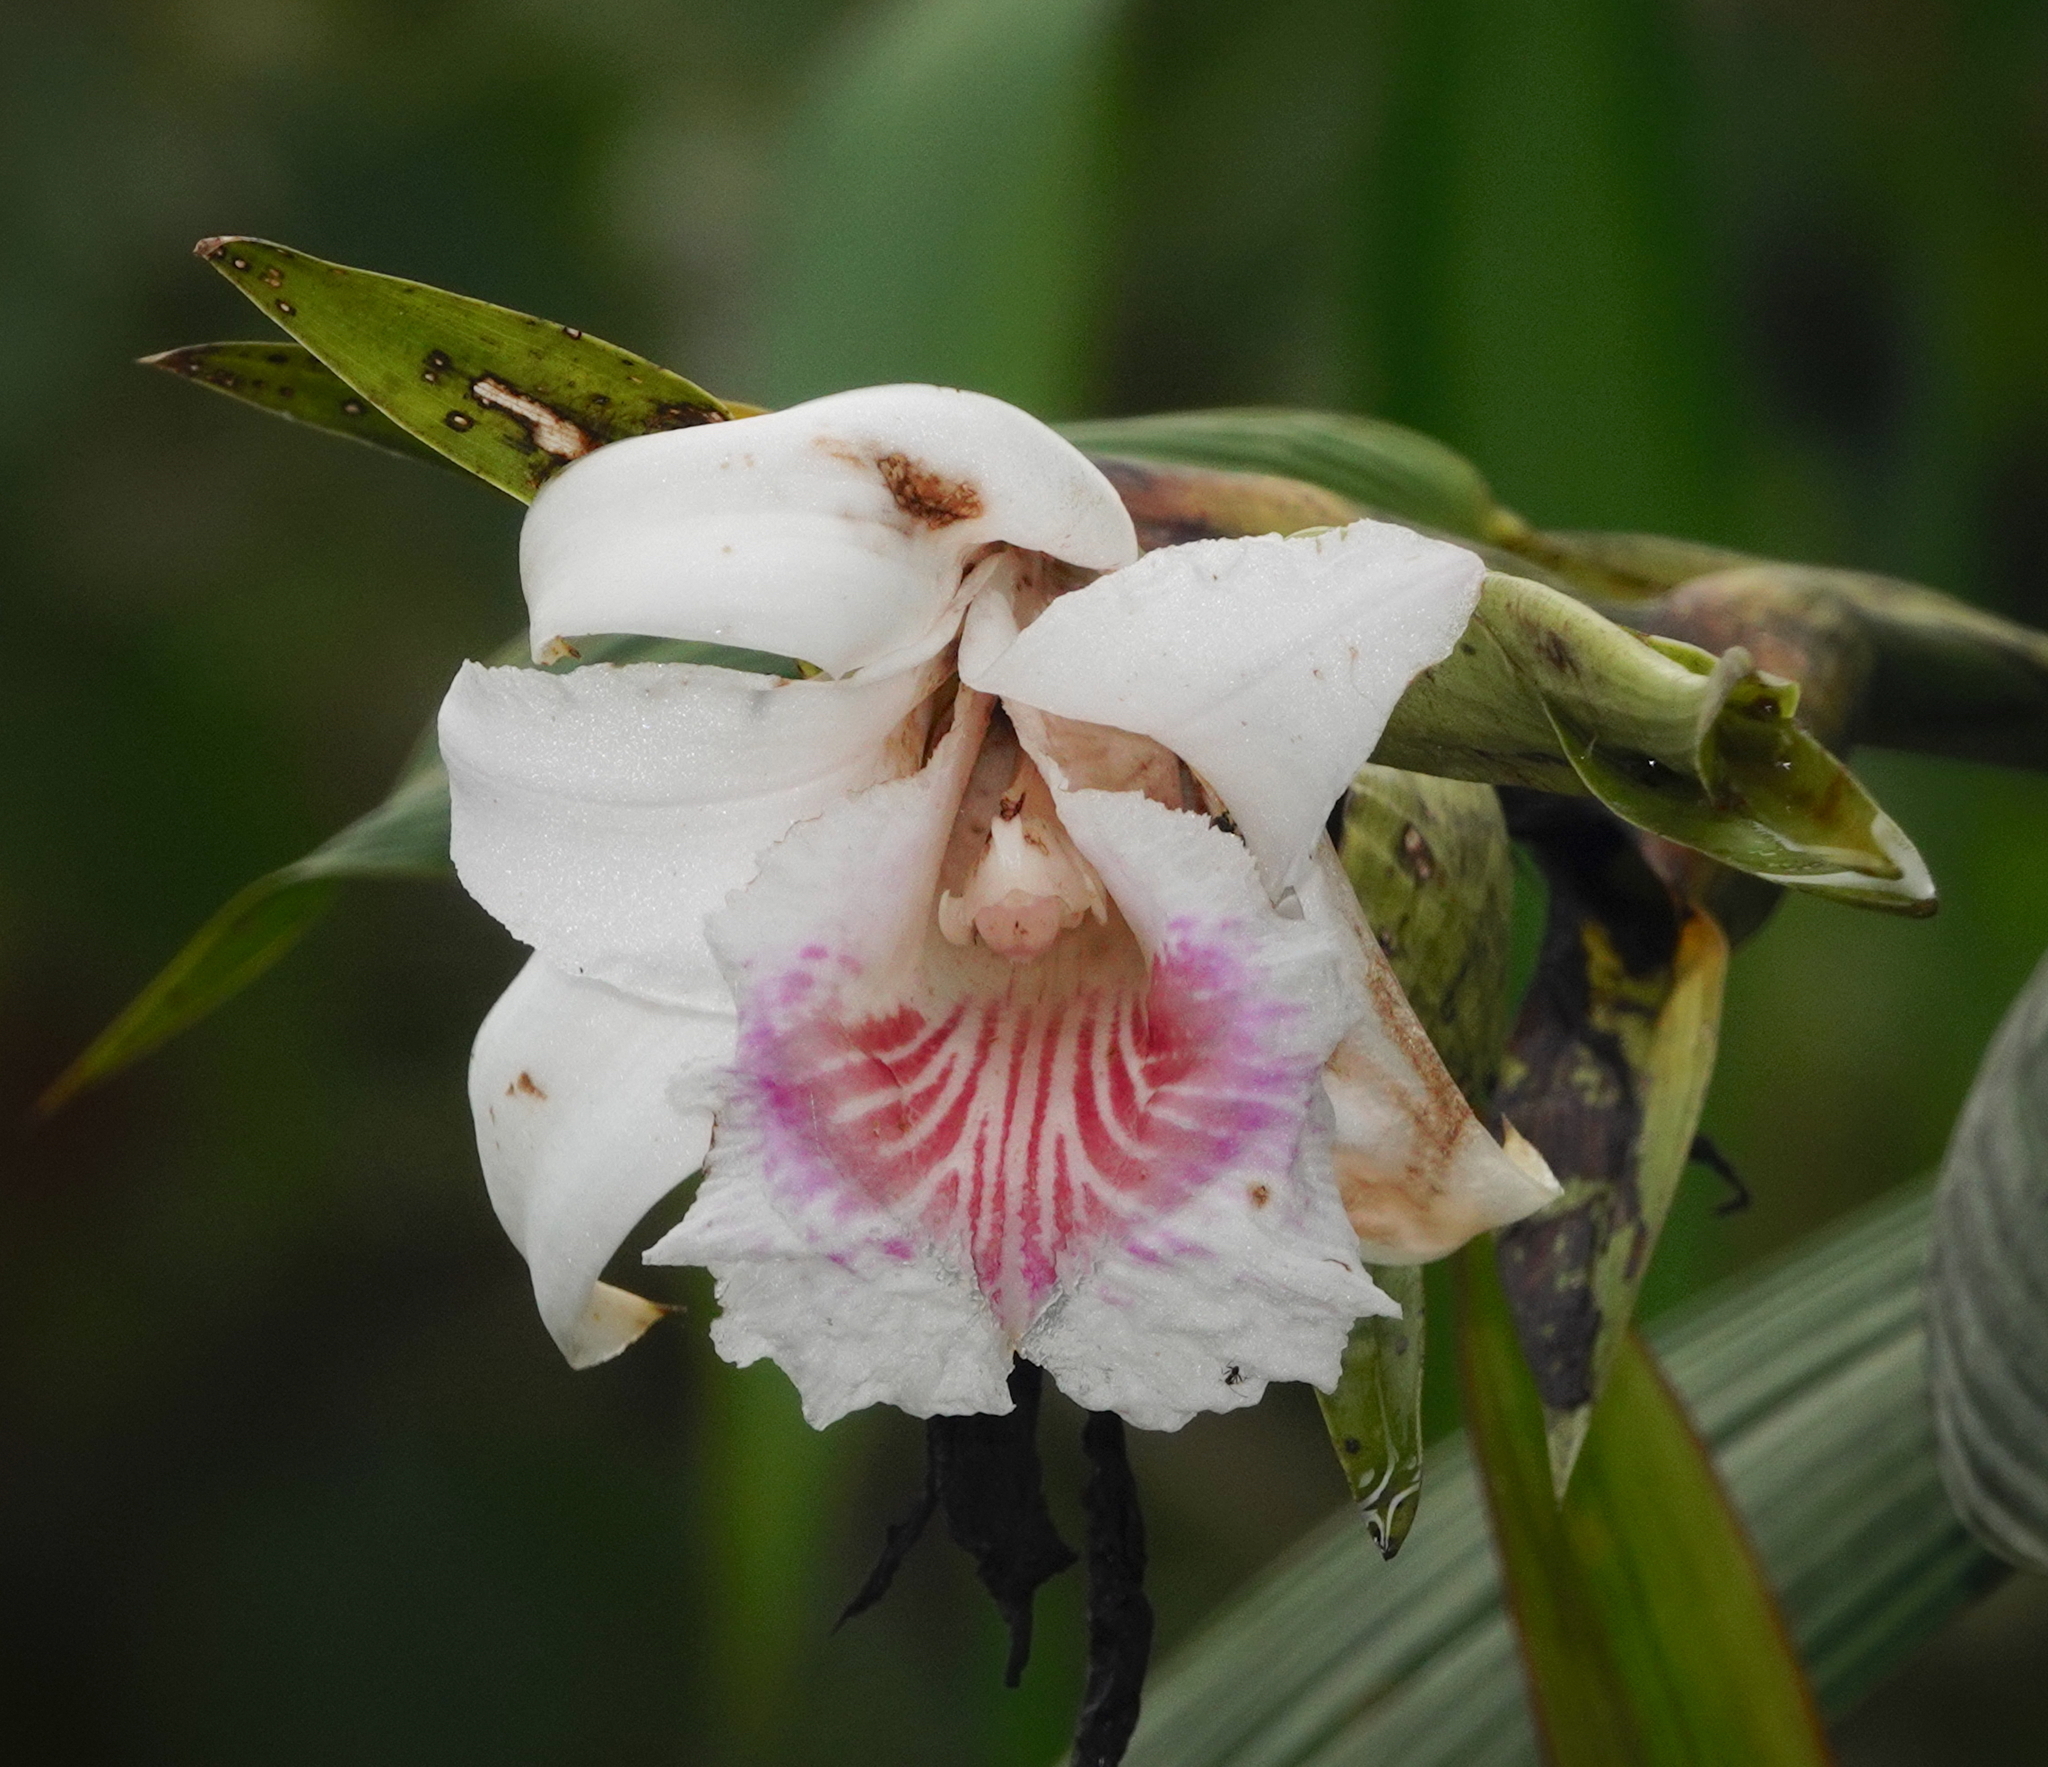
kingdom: Plantae
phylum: Tracheophyta
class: Liliopsida
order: Asparagales
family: Orchidaceae
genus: Sobralia
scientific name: Sobralia pulcherrima
